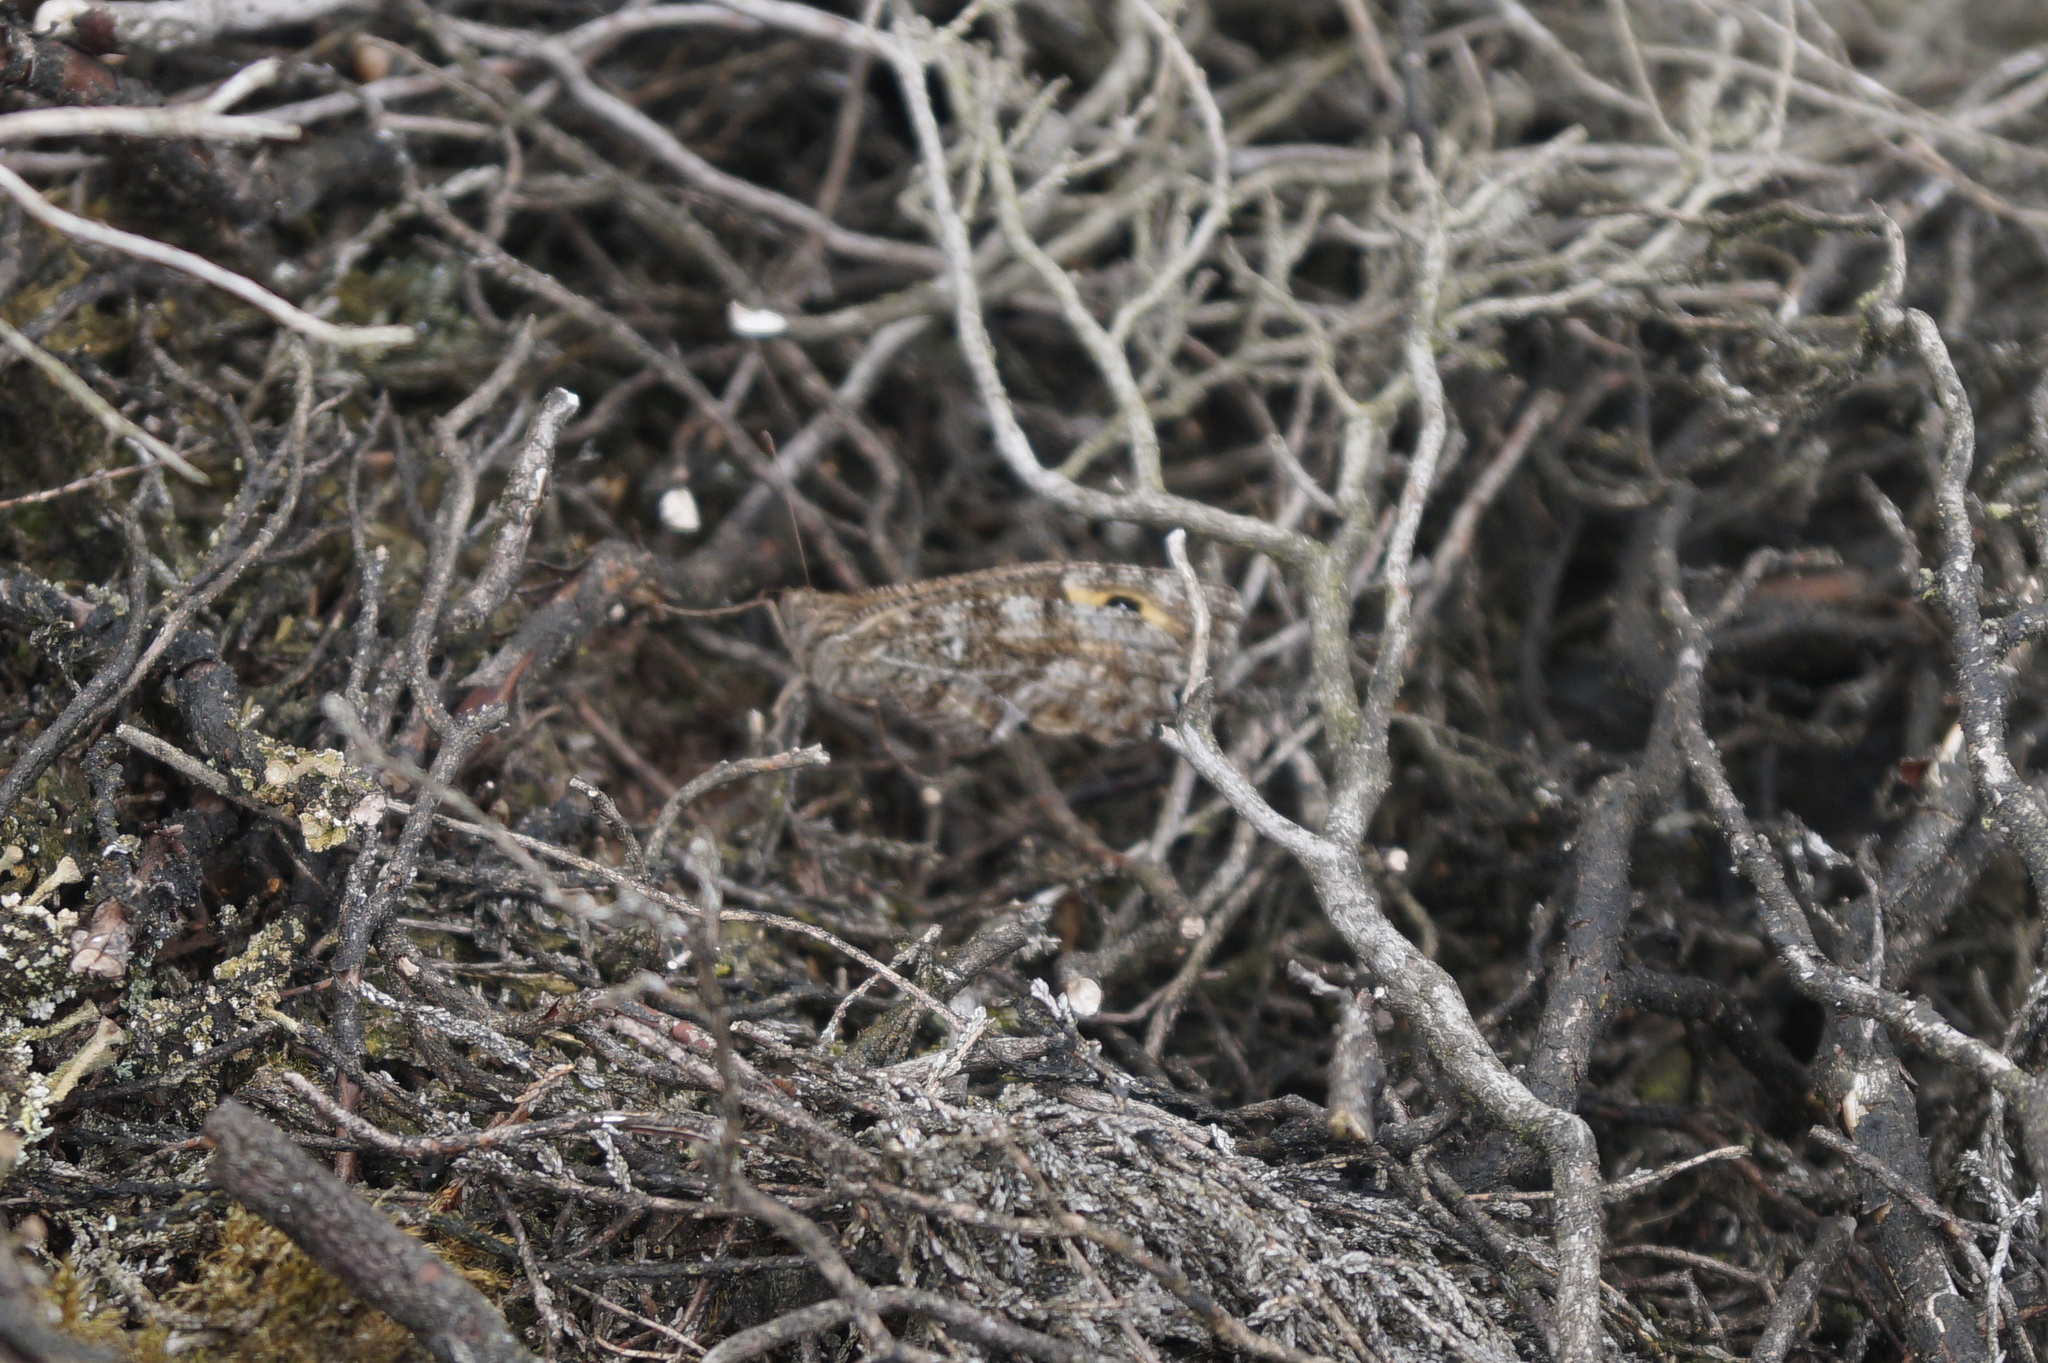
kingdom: Animalia
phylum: Arthropoda
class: Insecta
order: Lepidoptera
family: Nymphalidae
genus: Hipparchia
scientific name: Hipparchia semele
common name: Grayling
